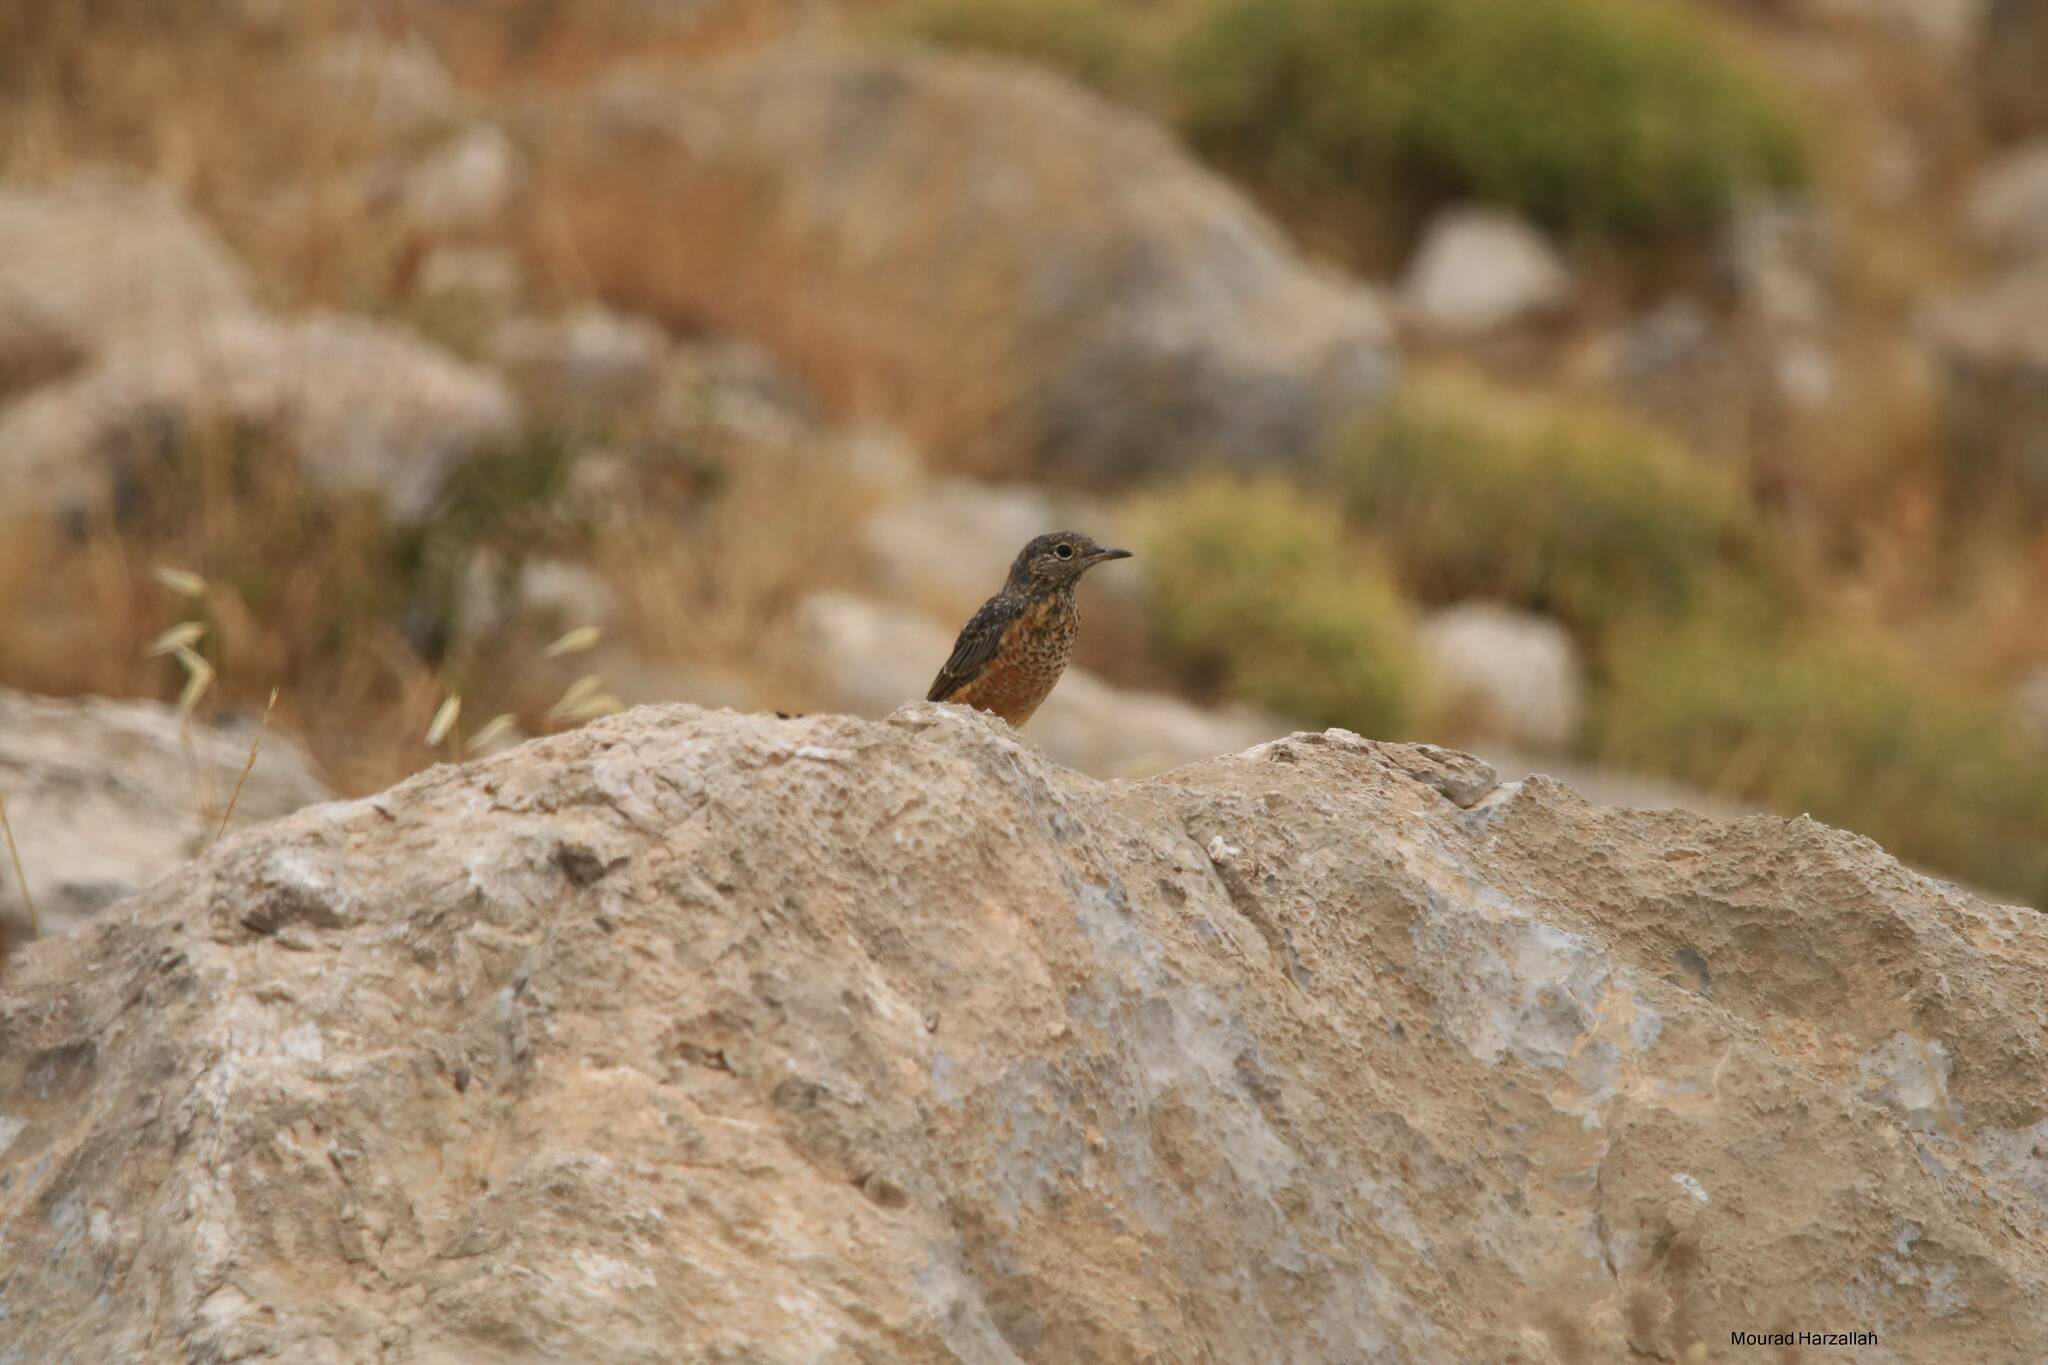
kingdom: Animalia
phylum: Chordata
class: Aves
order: Passeriformes
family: Muscicapidae
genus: Monticola
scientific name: Monticola saxatilis
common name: Rufous-tailed rock thrush
